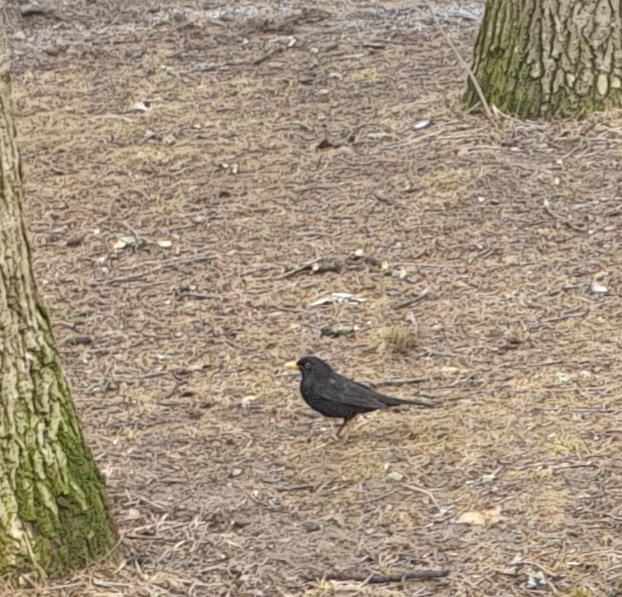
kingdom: Animalia
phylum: Chordata
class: Aves
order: Passeriformes
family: Turdidae
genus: Turdus
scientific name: Turdus merula
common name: Common blackbird
